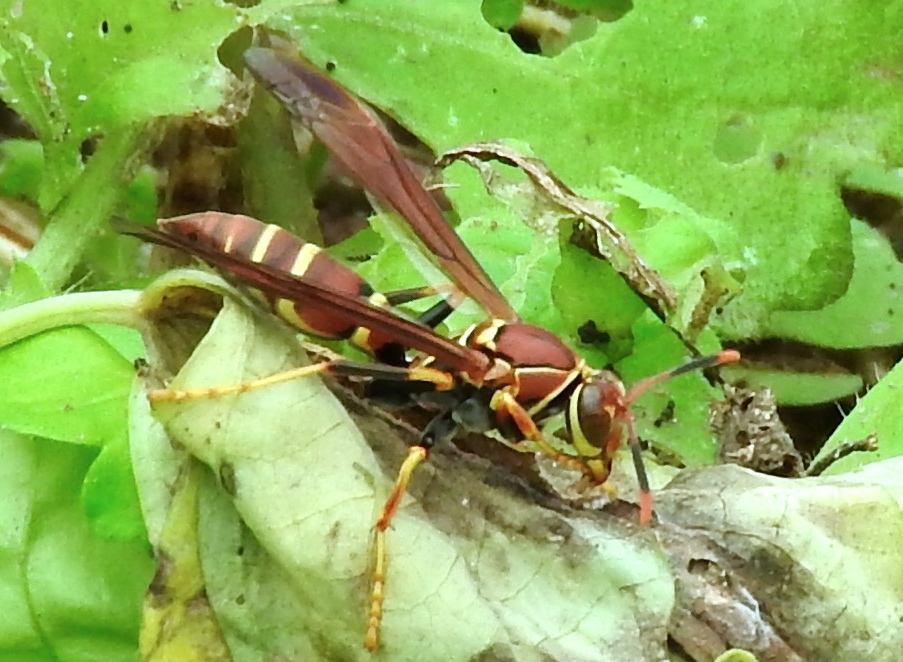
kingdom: Animalia
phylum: Arthropoda
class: Insecta
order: Hymenoptera
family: Eumenidae
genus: Polistes
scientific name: Polistes instabilis
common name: Unstable paper wasp
